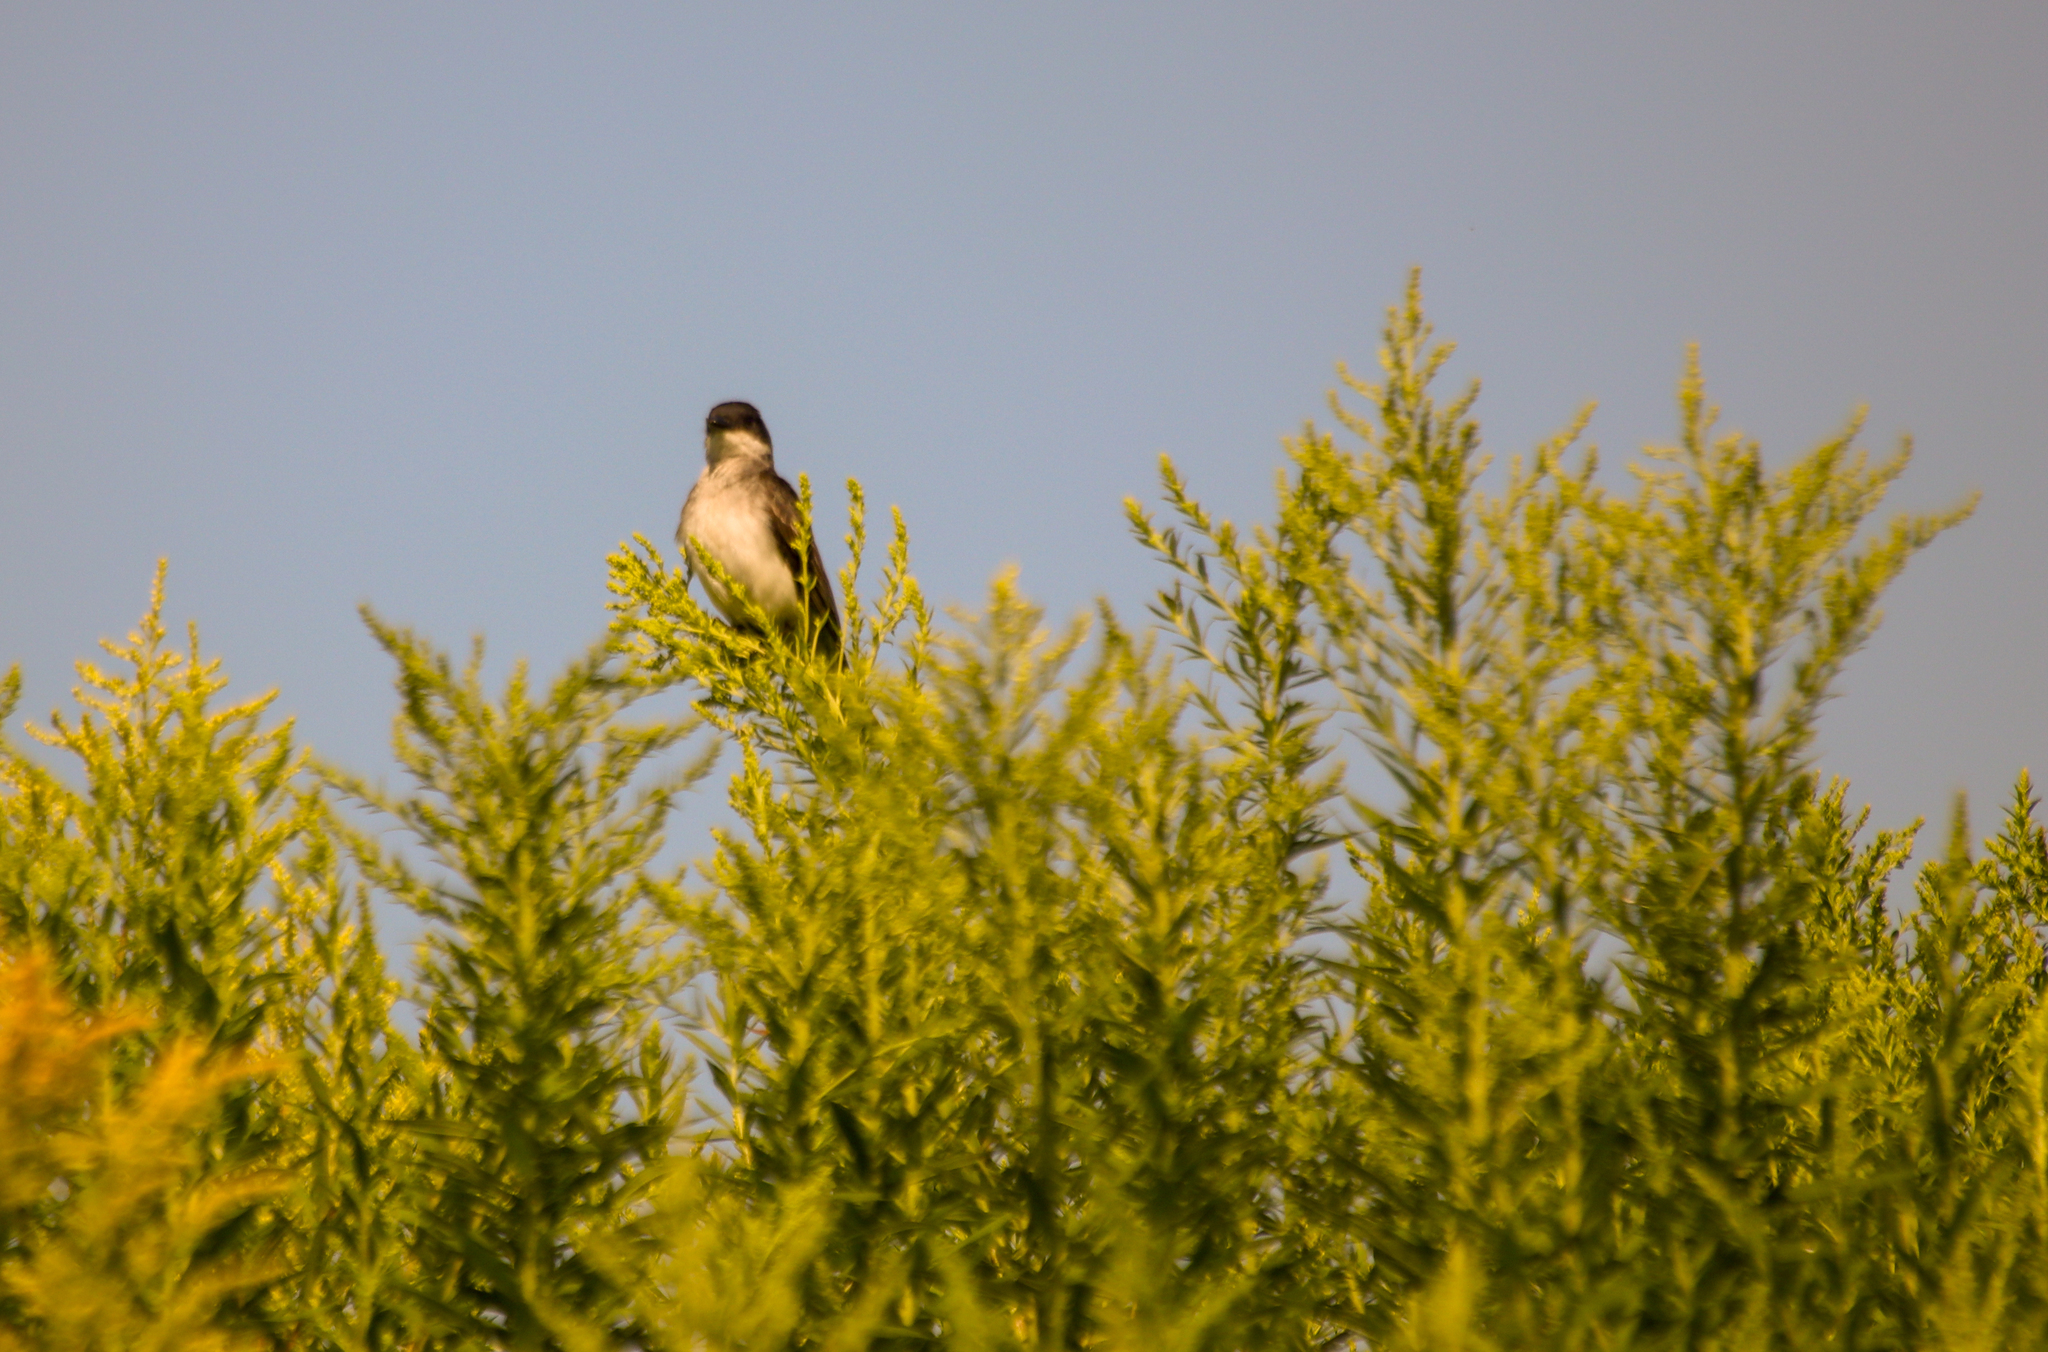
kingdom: Animalia
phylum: Chordata
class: Aves
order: Passeriformes
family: Tyrannidae
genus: Tyrannus
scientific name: Tyrannus tyrannus
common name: Eastern kingbird
